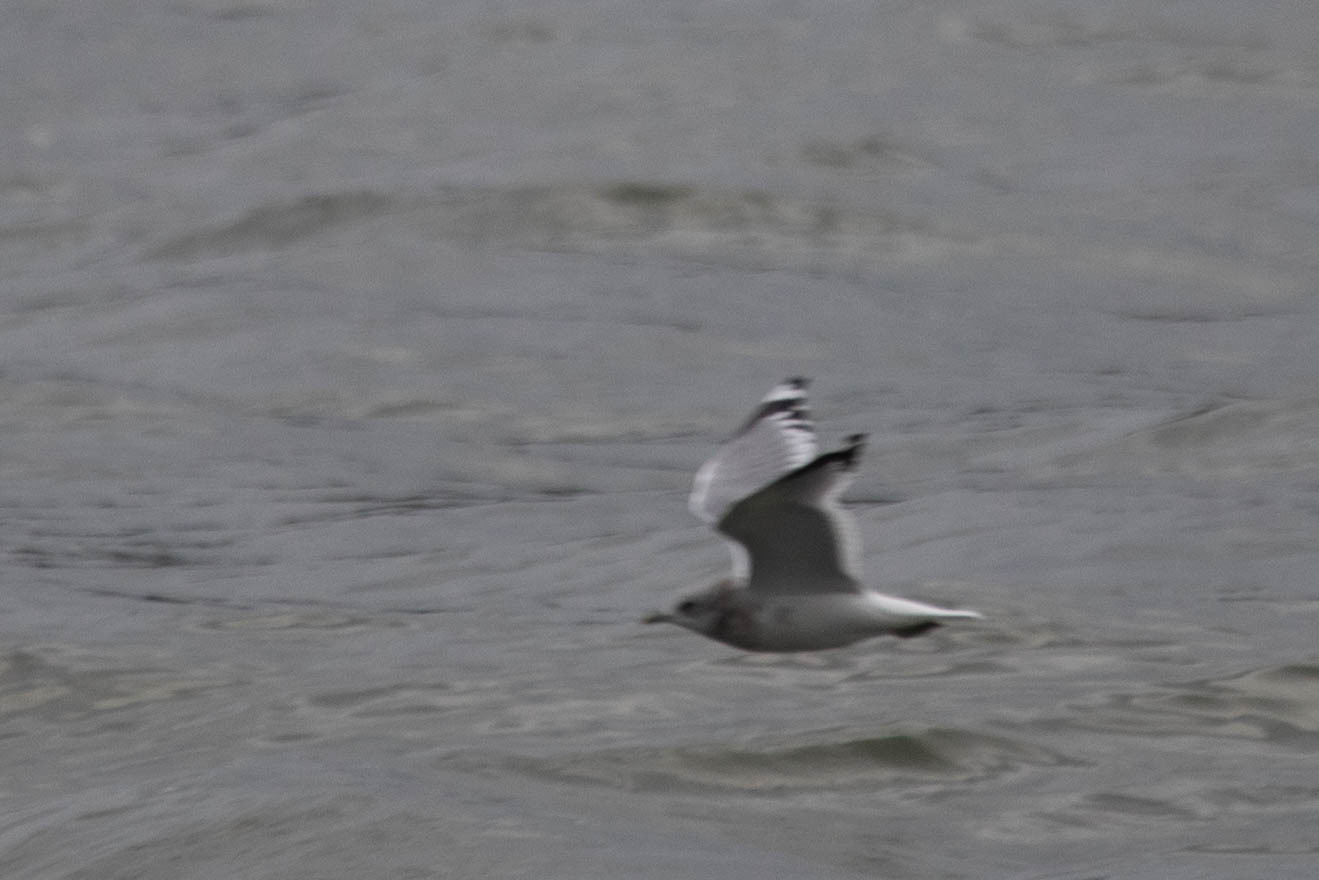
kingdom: Animalia
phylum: Chordata
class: Aves
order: Charadriiformes
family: Laridae
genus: Larus
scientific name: Larus brachyrhynchus
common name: Short-billed gull
